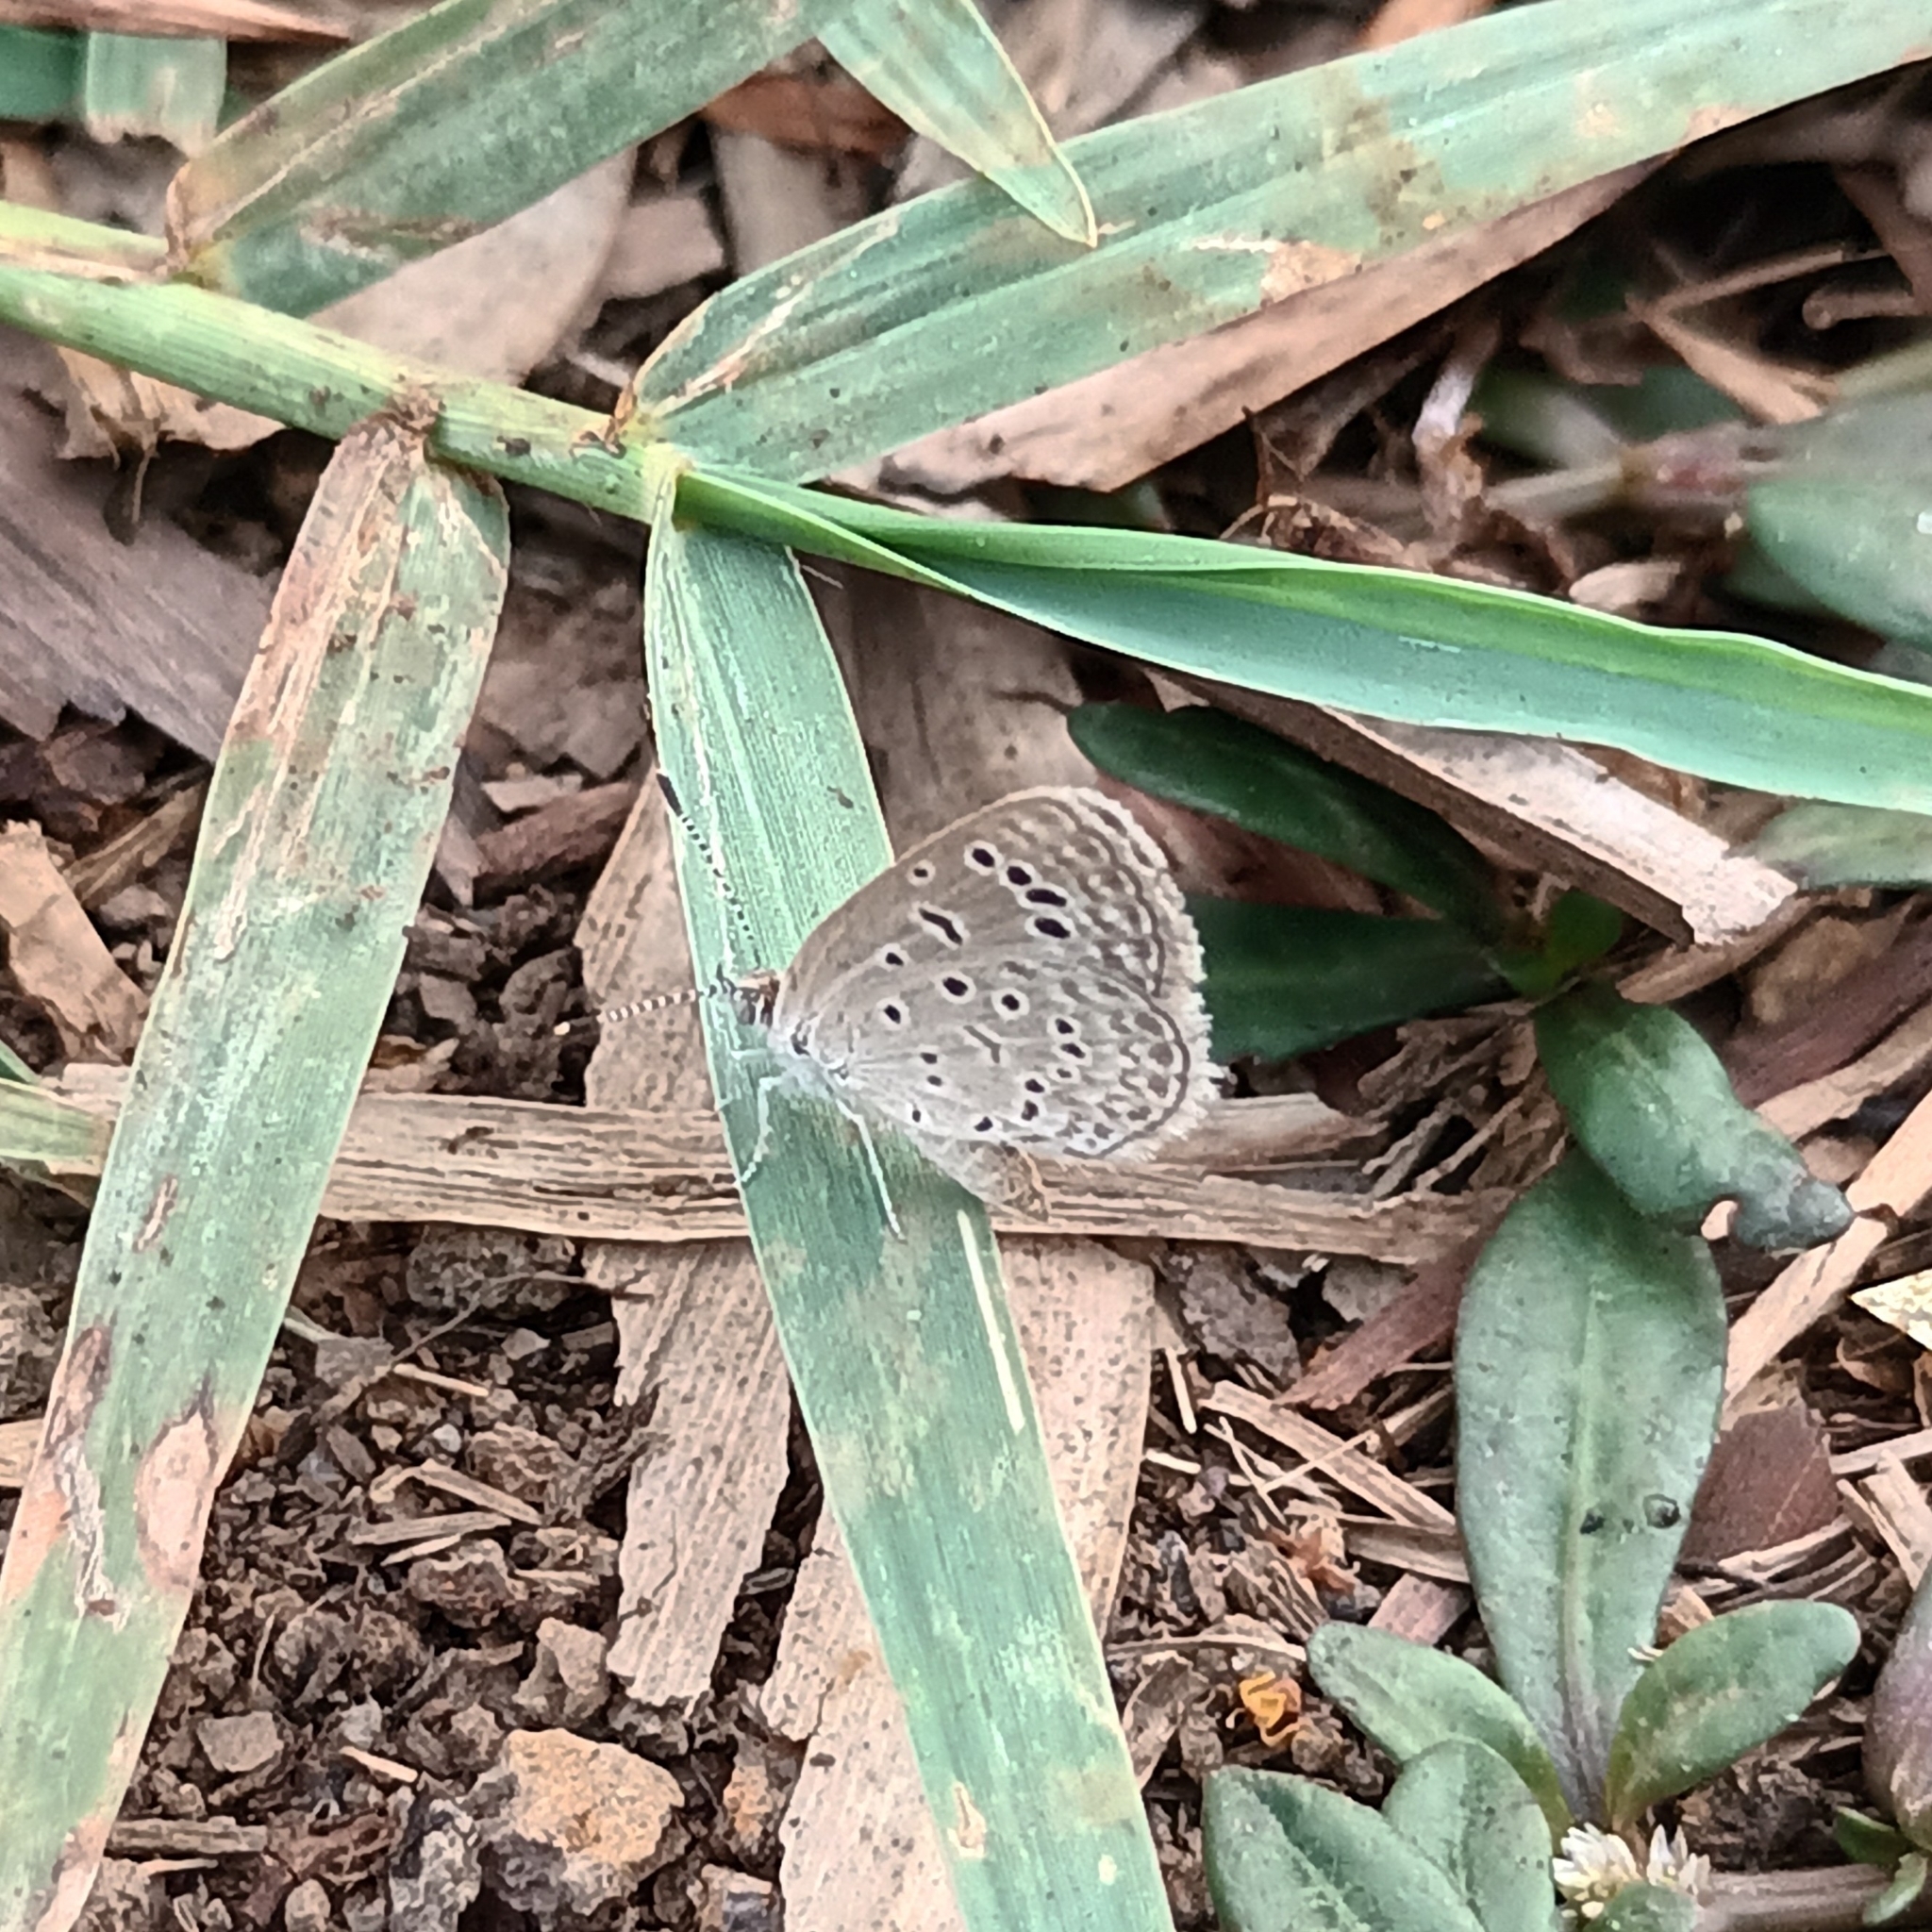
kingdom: Animalia
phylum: Arthropoda
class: Insecta
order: Lepidoptera
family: Lycaenidae
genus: Zizeeria
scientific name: Zizeeria karsandra
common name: Dark grass blue
